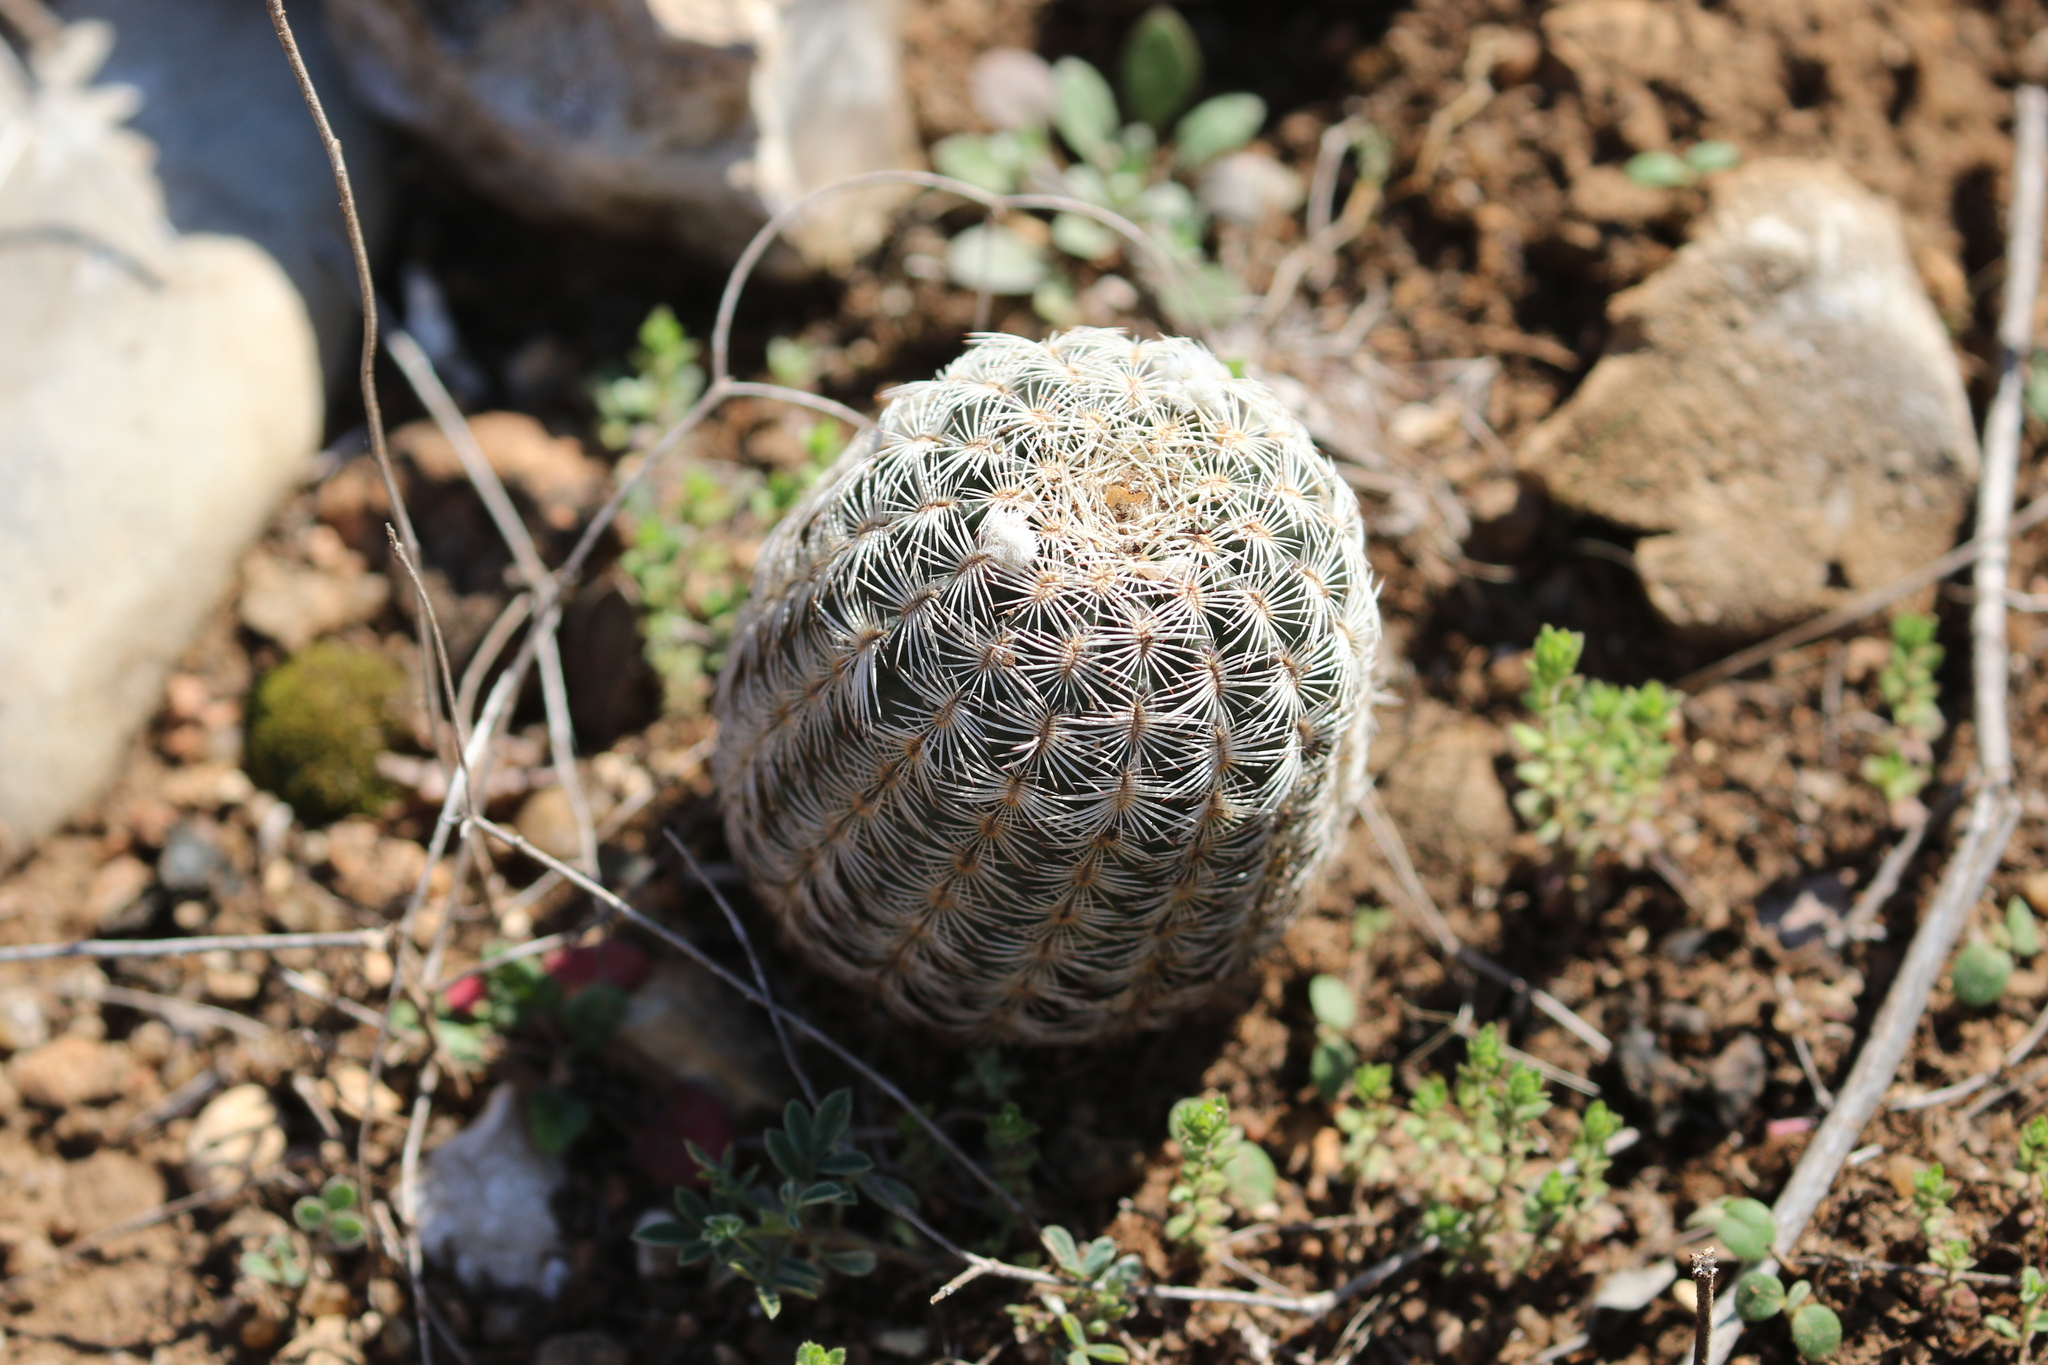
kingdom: Plantae
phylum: Tracheophyta
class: Magnoliopsida
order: Caryophyllales
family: Cactaceae
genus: Echinocereus
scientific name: Echinocereus reichenbachii
